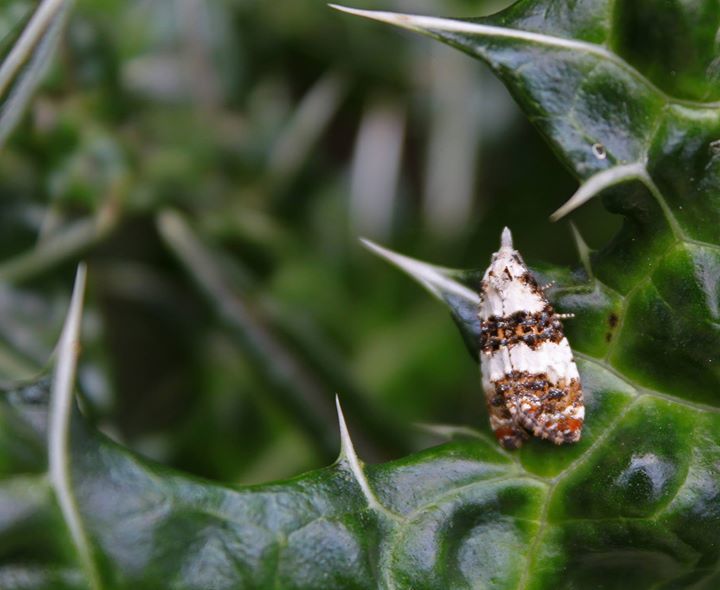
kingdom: Animalia
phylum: Arthropoda
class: Insecta
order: Lepidoptera
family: Tortricidae
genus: Phtheochroa
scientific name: Phtheochroa duponchelana
